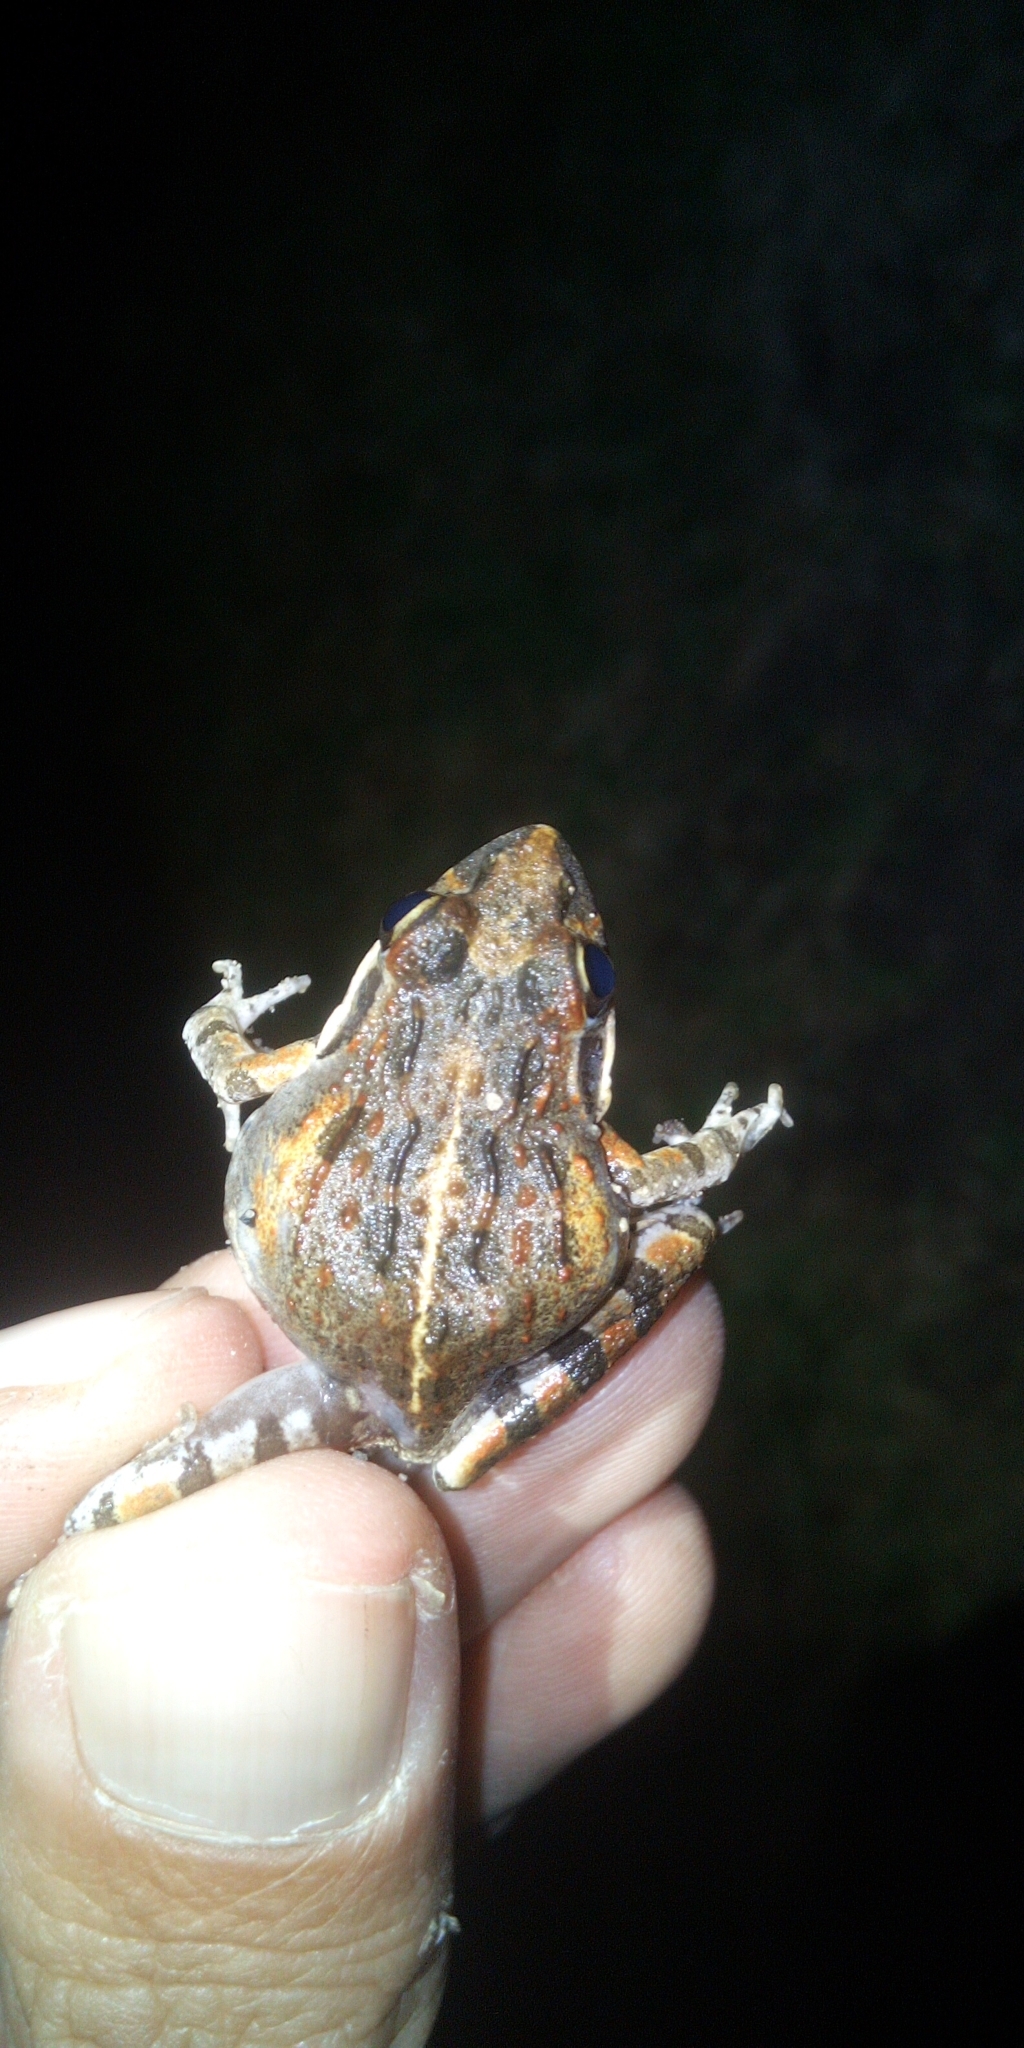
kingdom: Animalia
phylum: Chordata
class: Amphibia
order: Anura
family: Pyxicephalidae
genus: Strongylopus
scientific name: Strongylopus grayii
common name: Gray's stream frog
